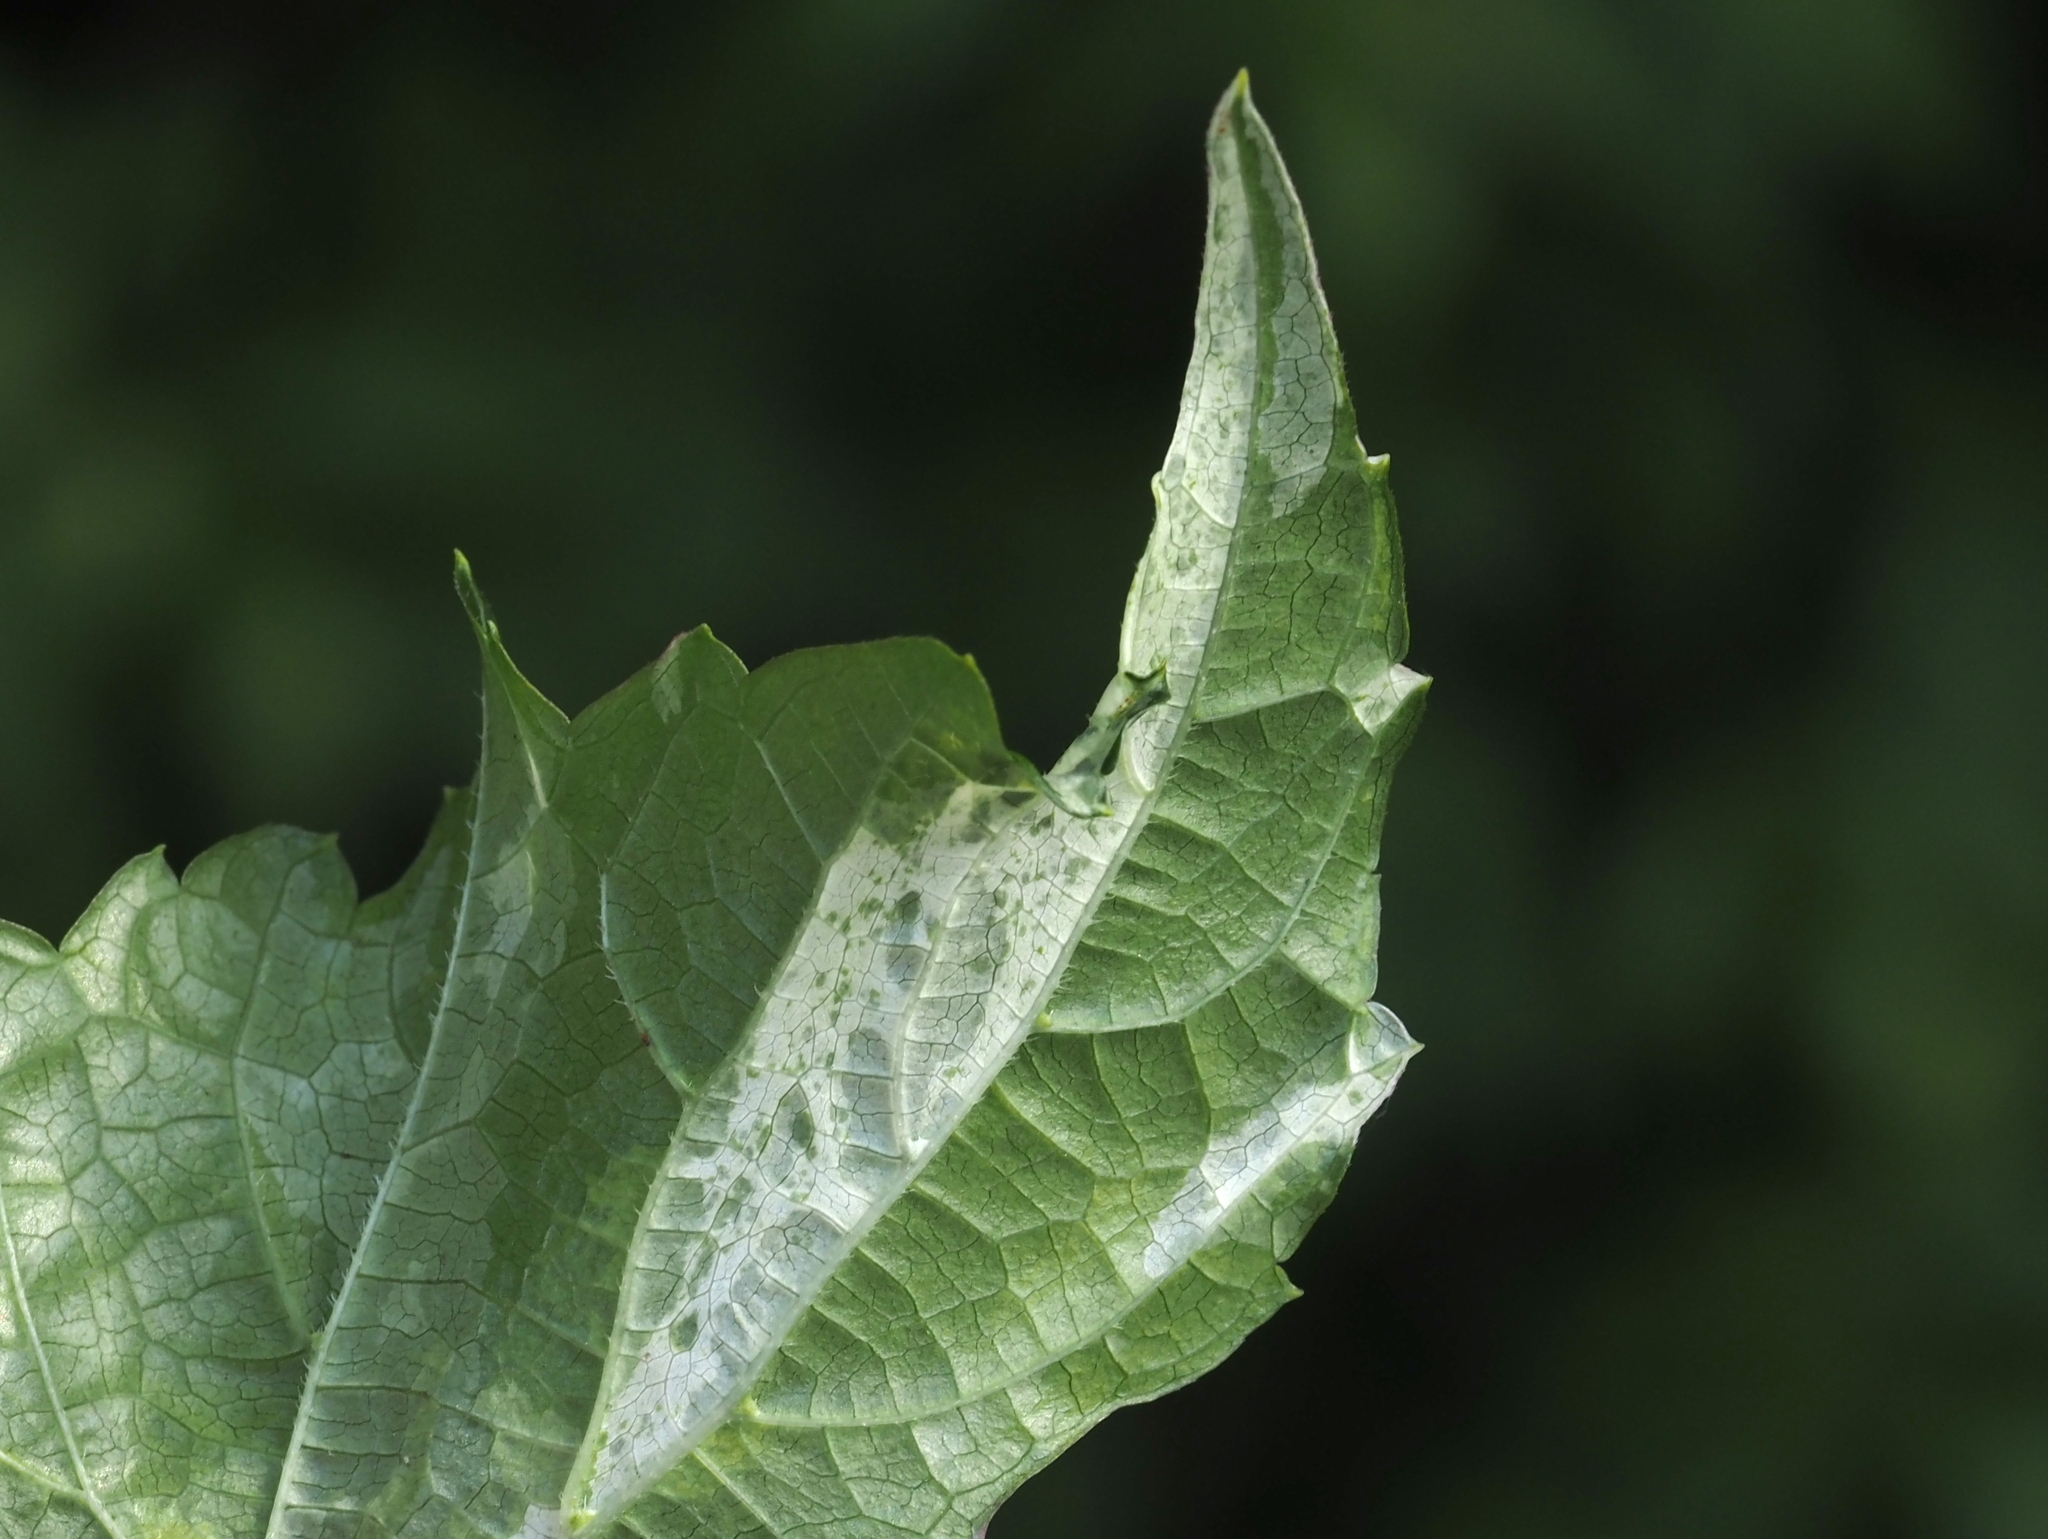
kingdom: Plantae
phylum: Tracheophyta
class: Magnoliopsida
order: Vitales
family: Vitaceae
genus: Ampelopsis
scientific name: Ampelopsis glandulosa
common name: Amur peppervine
